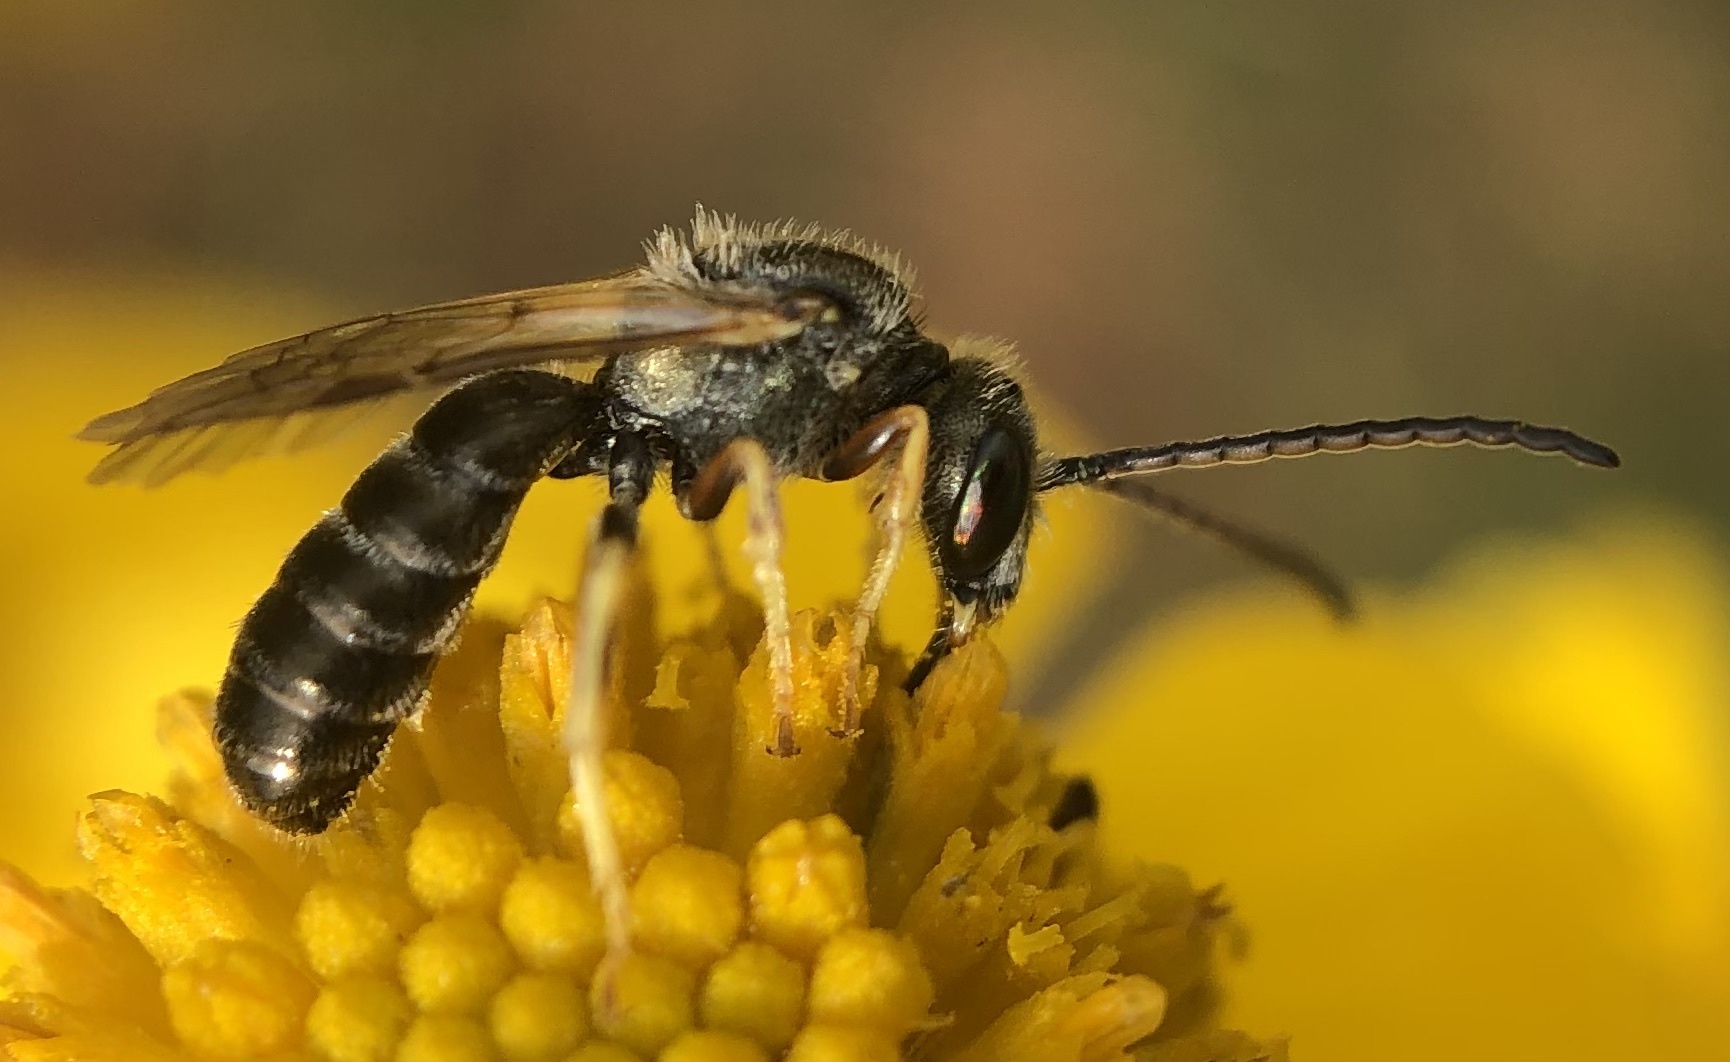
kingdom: Animalia
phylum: Arthropoda
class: Insecta
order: Hymenoptera
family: Halictidae
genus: Halictus
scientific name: Halictus confusus
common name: Southern bronze furrow bee
